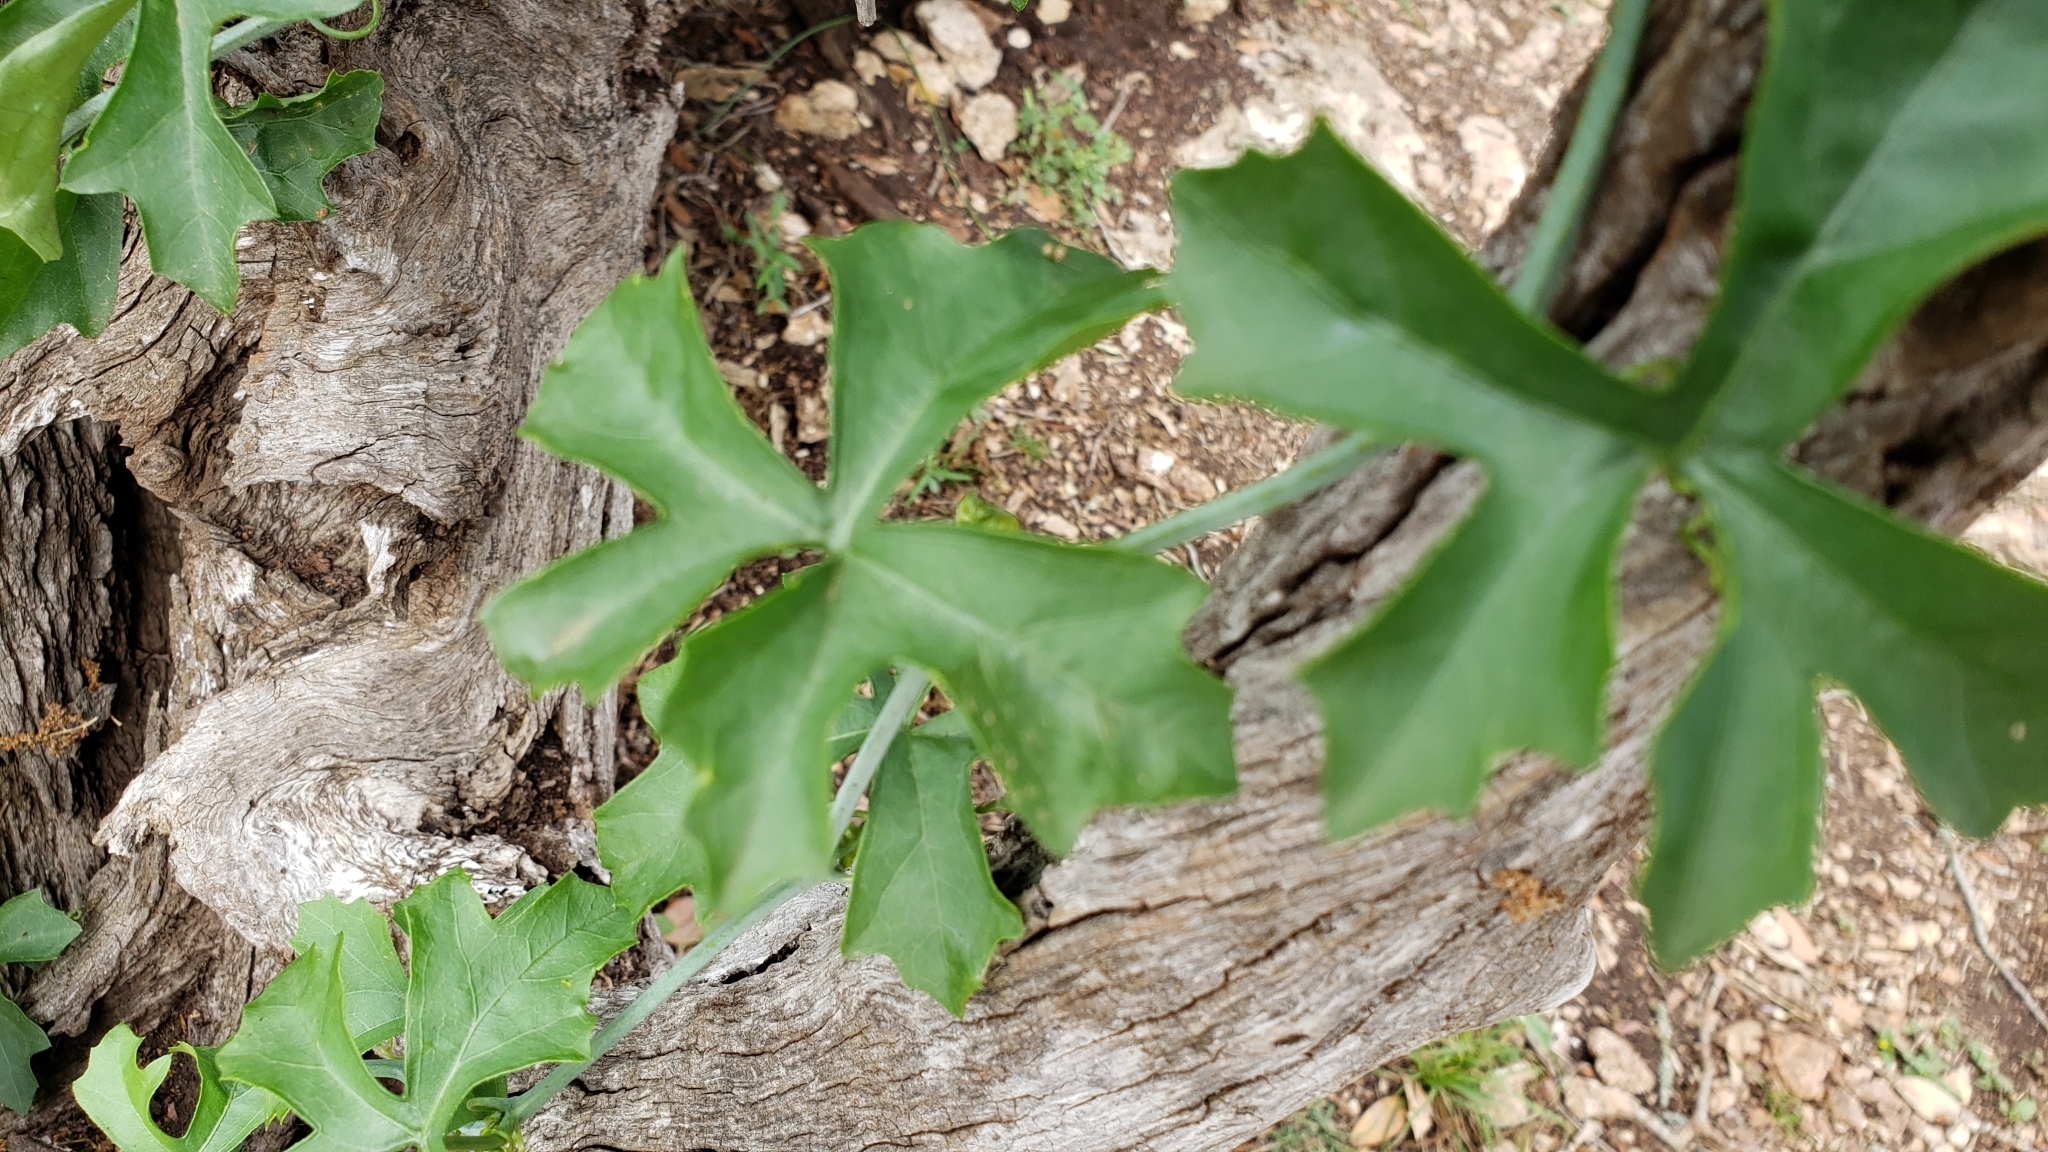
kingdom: Plantae
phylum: Tracheophyta
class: Magnoliopsida
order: Cucurbitales
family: Cucurbitaceae
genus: Ibervillea
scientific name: Ibervillea lindheimeri
